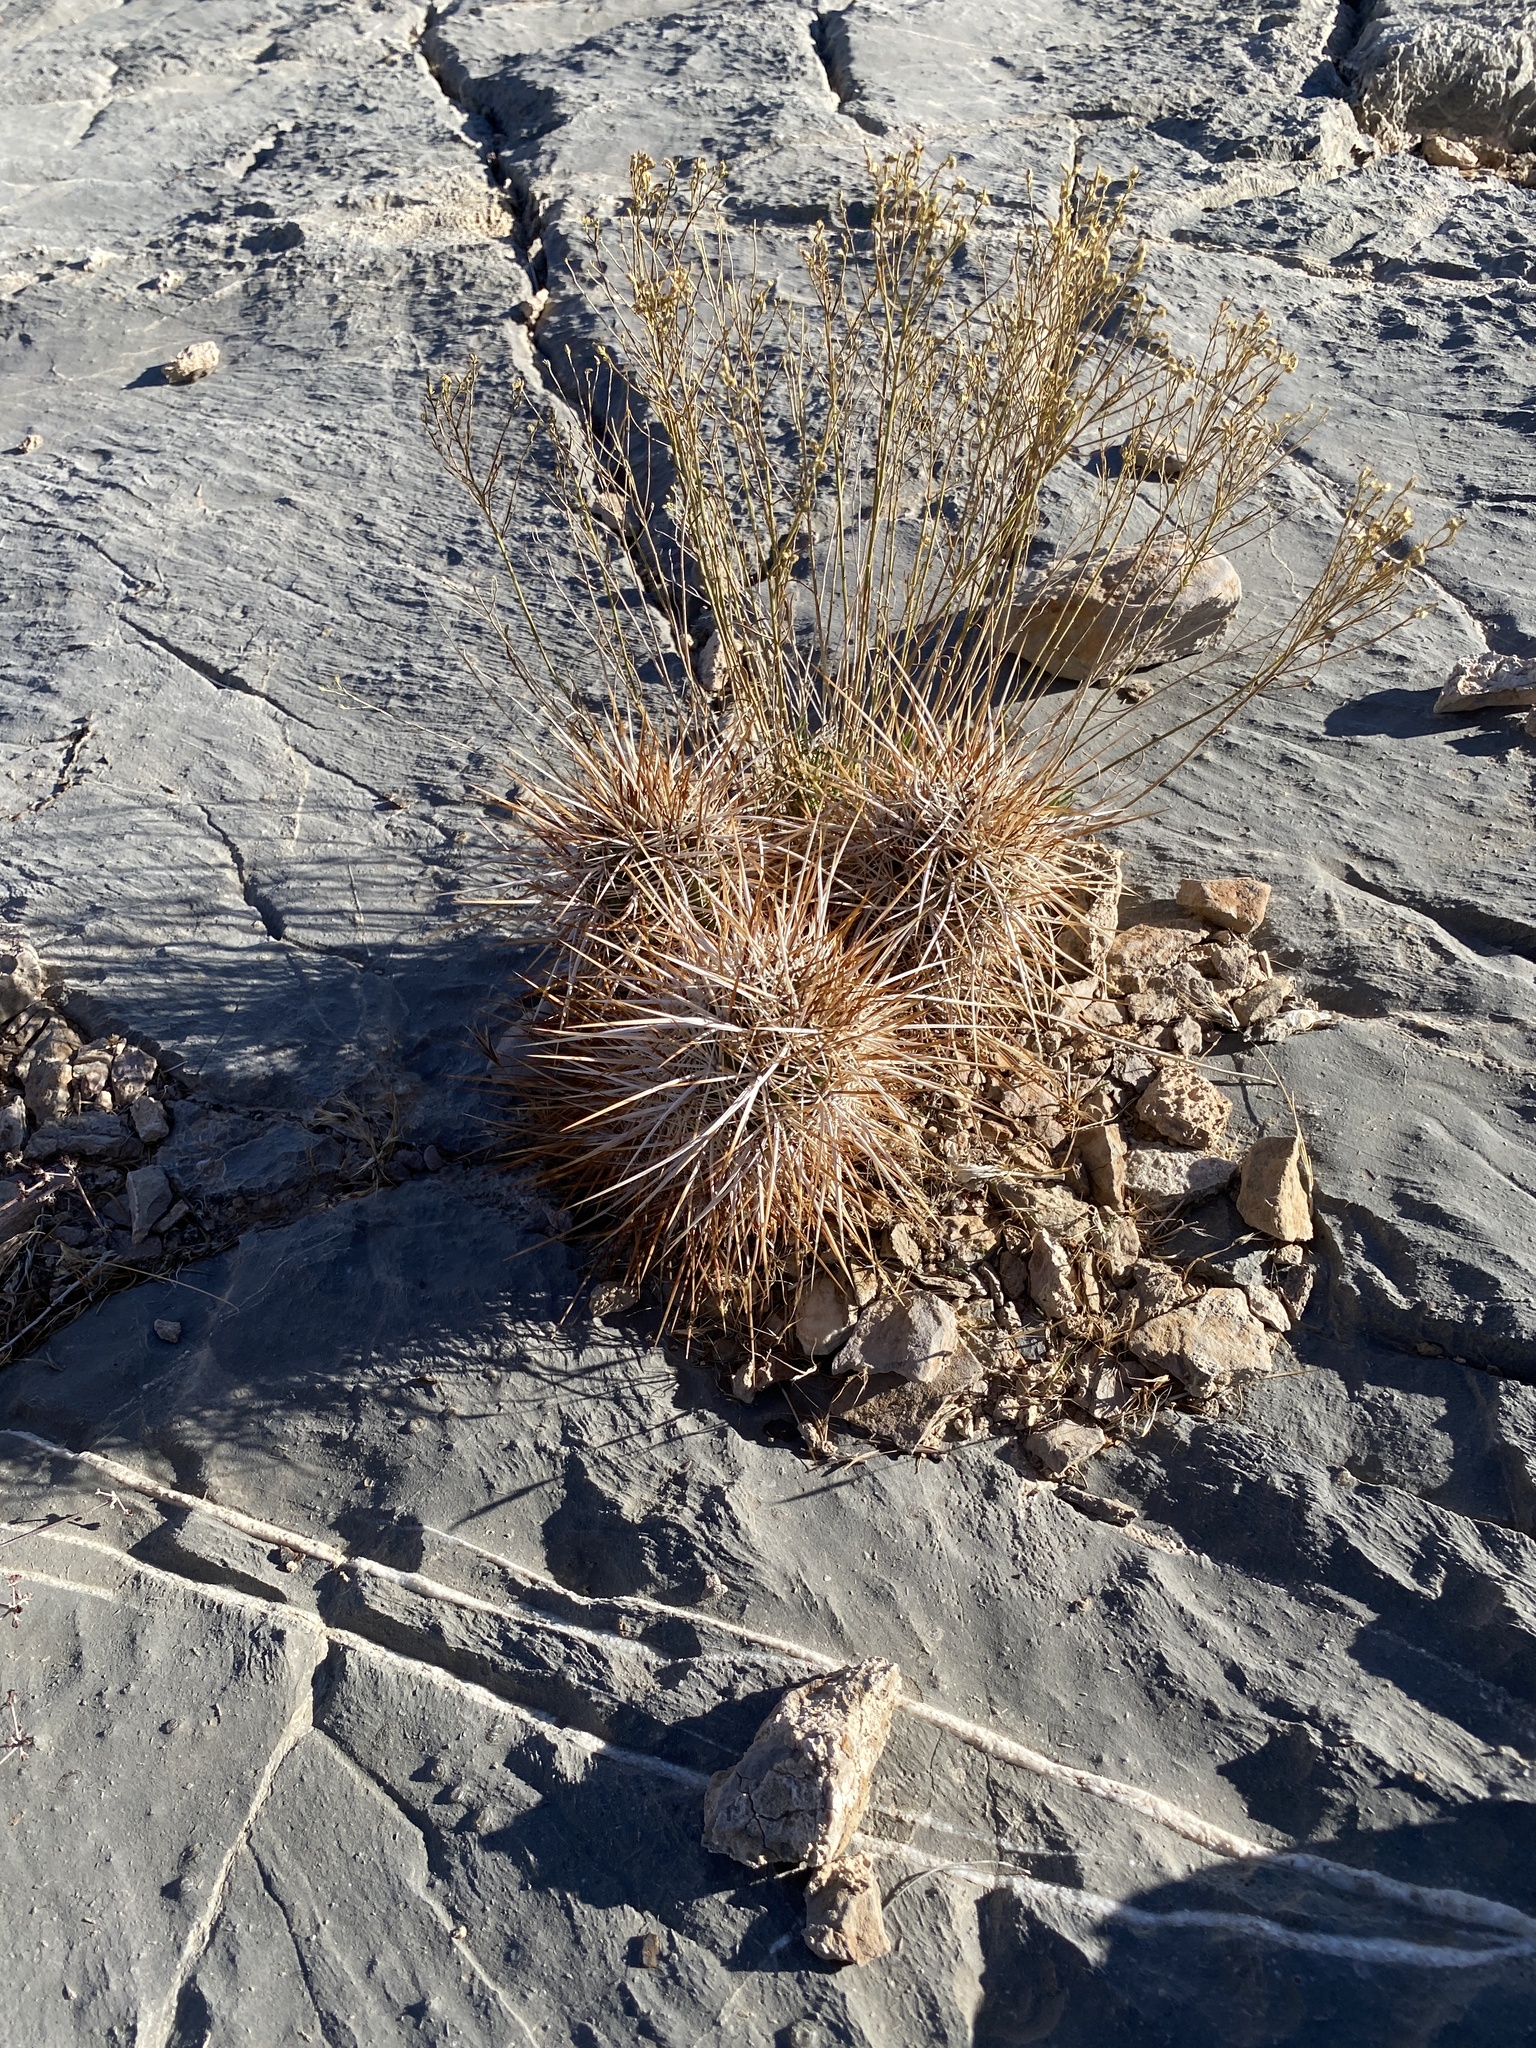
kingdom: Plantae
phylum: Tracheophyta
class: Magnoliopsida
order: Caryophyllales
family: Cactaceae
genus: Echinocereus
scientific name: Echinocereus engelmannii
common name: Engelmann's hedgehog cactus
